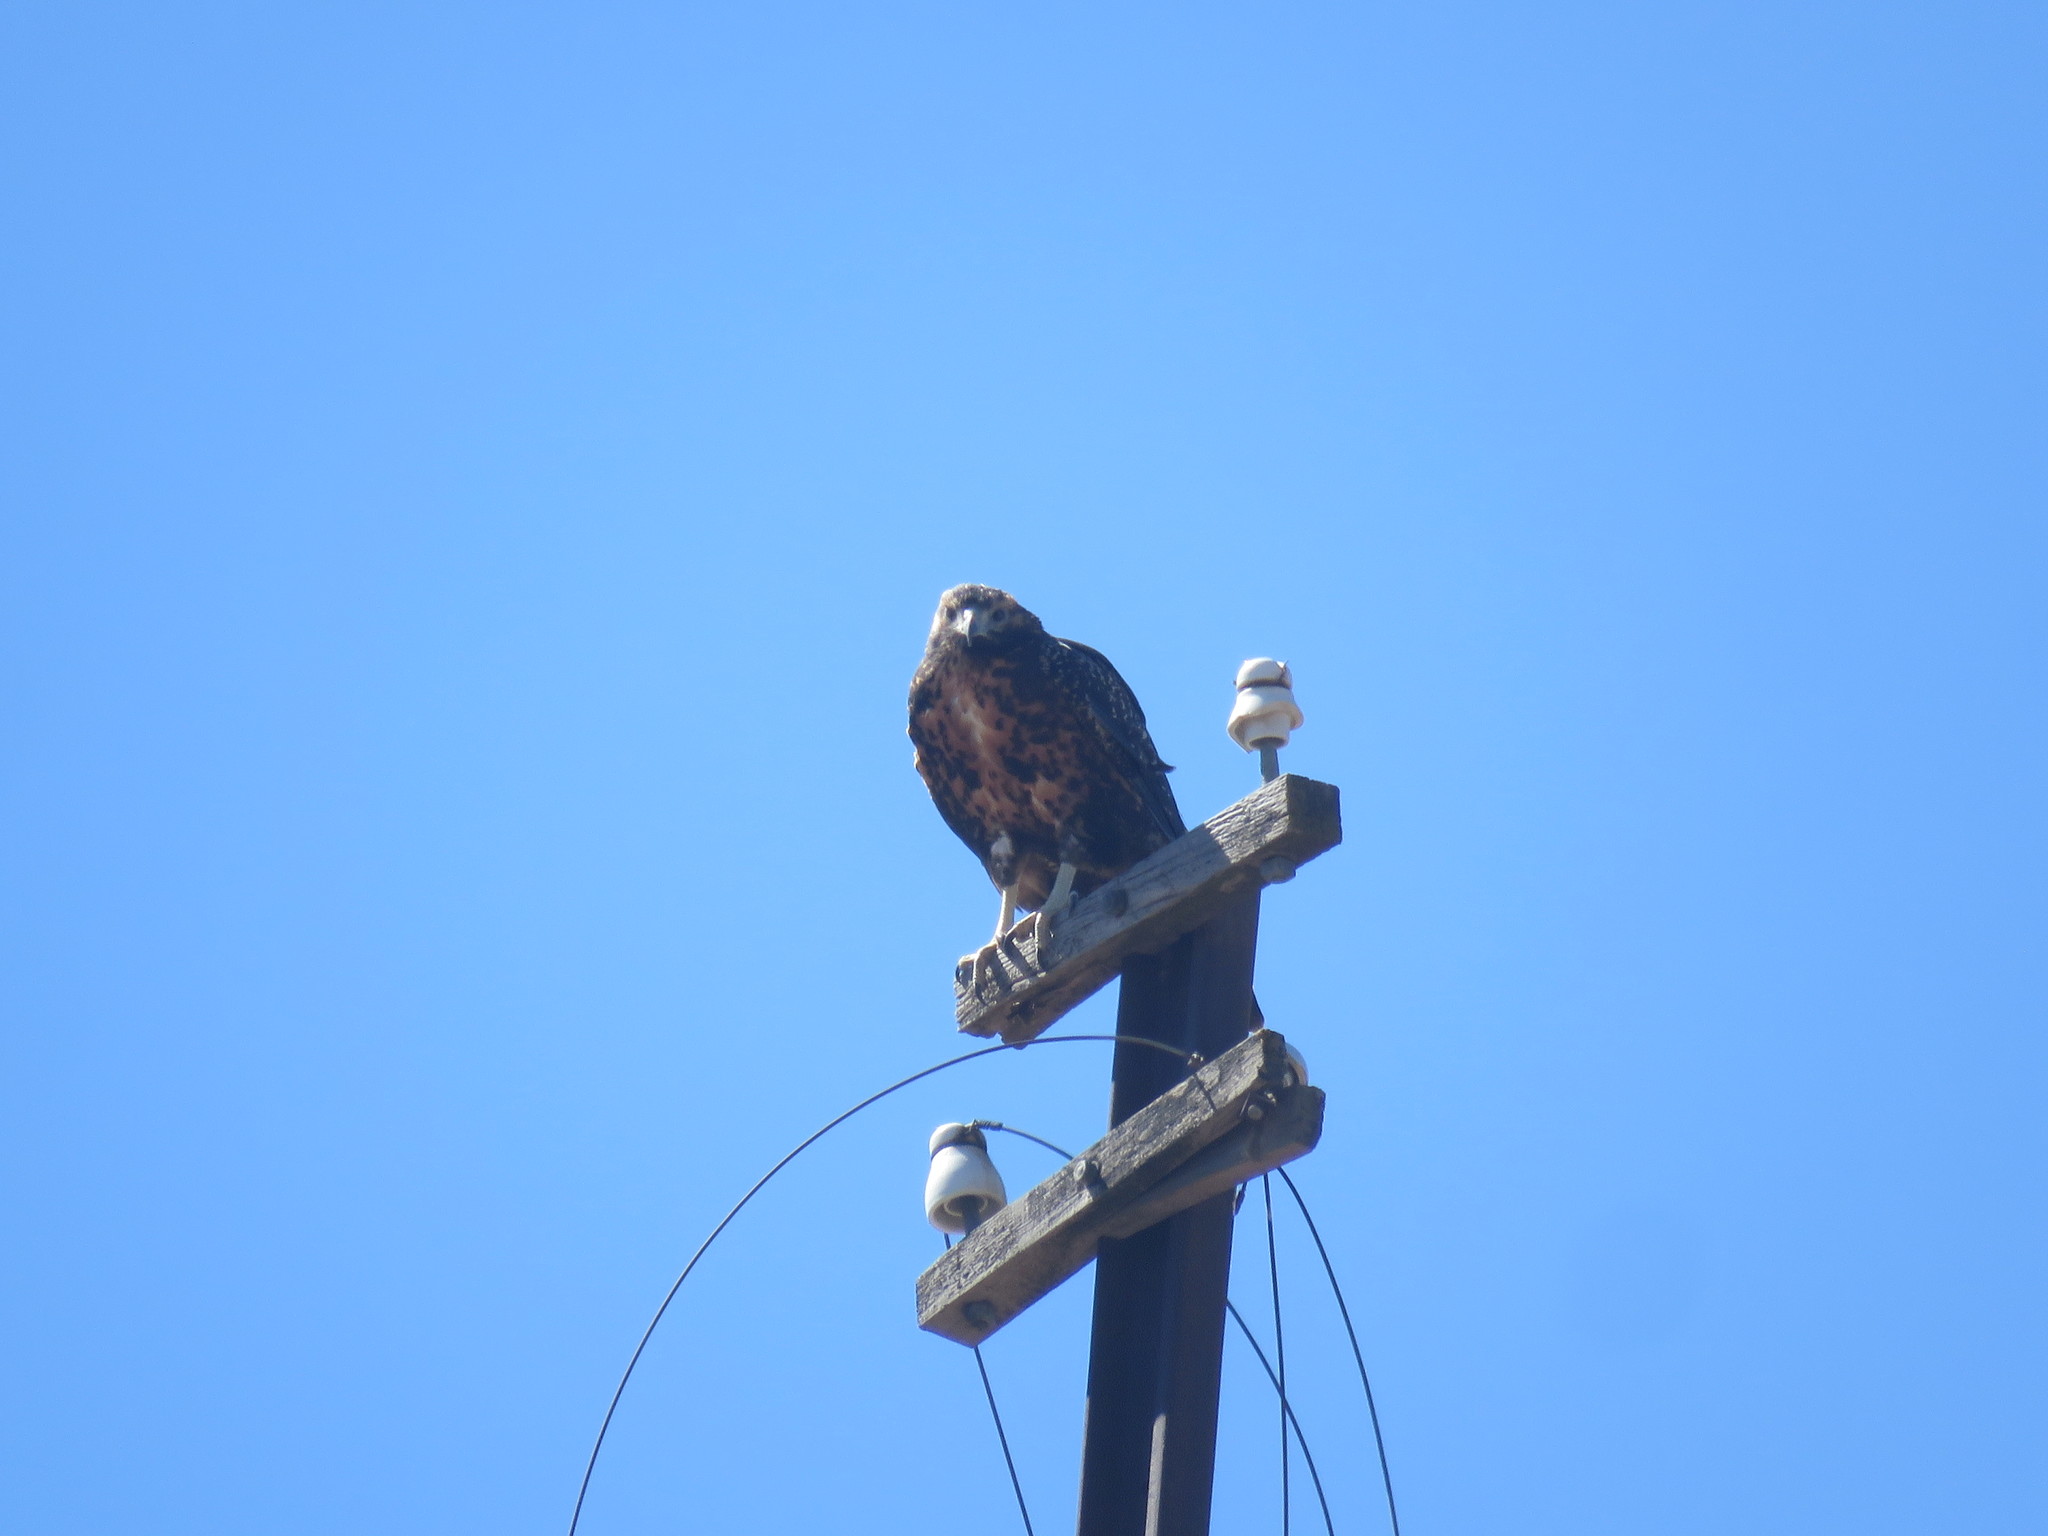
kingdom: Animalia
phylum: Chordata
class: Aves
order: Accipitriformes
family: Accipitridae
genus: Geranoaetus
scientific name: Geranoaetus melanoleucus
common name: Black-chested buzzard-eagle
